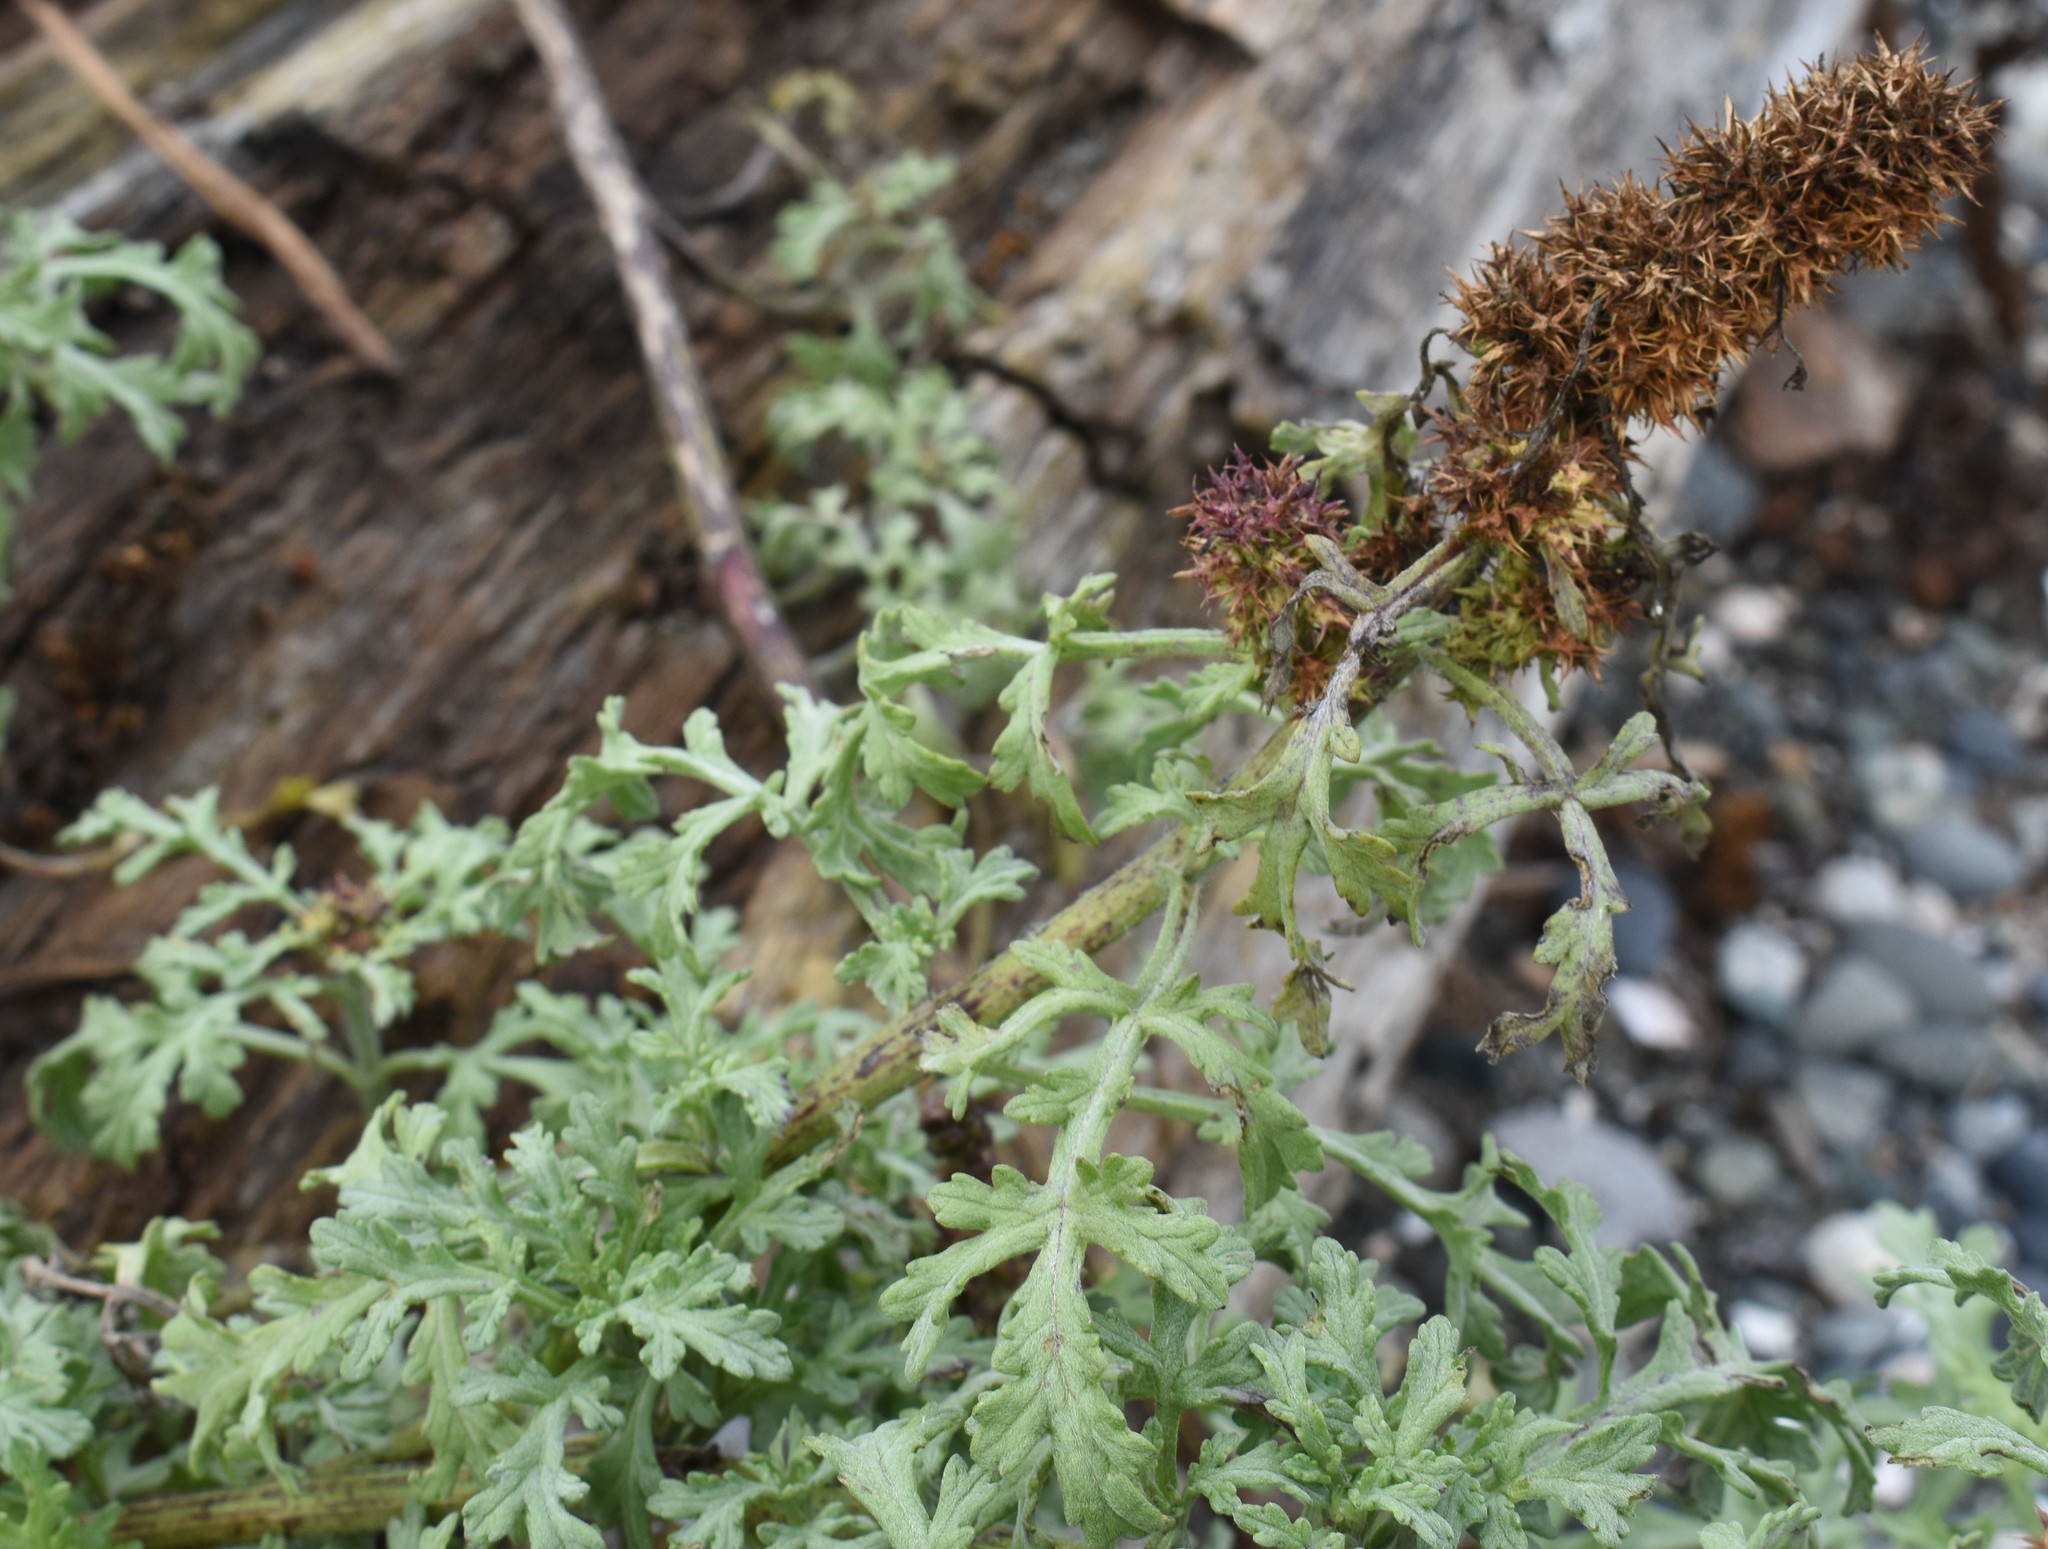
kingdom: Plantae
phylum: Tracheophyta
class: Magnoliopsida
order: Asterales
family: Asteraceae
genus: Ambrosia
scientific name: Ambrosia chamissonis
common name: Beachbur
